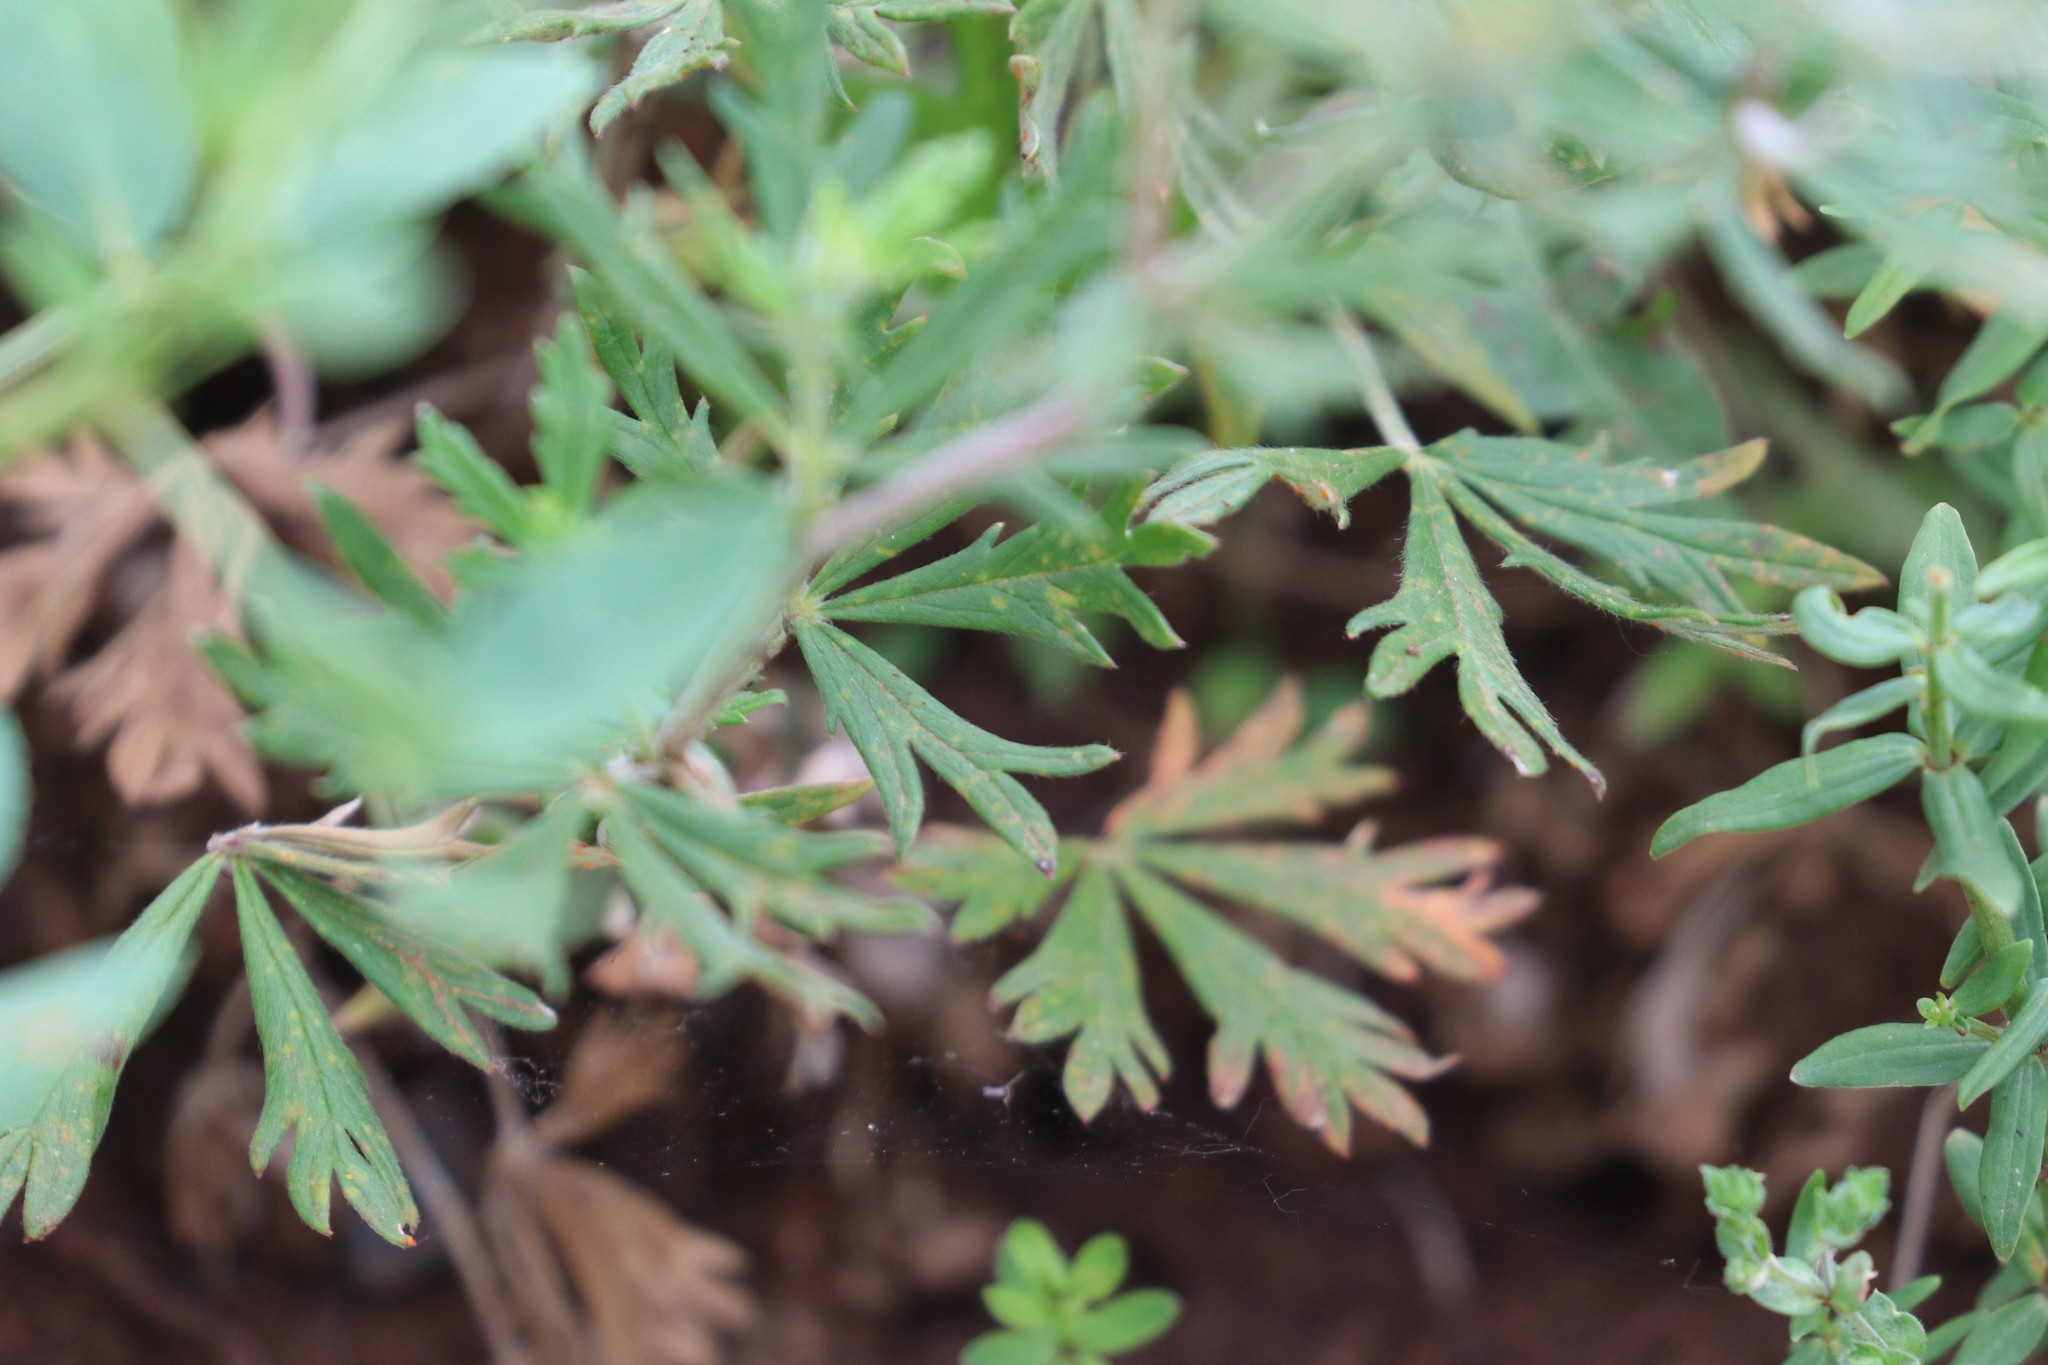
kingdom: Plantae
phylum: Tracheophyta
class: Magnoliopsida
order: Rosales
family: Rosaceae
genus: Potentilla
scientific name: Potentilla argentea
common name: Hoary cinquefoil
